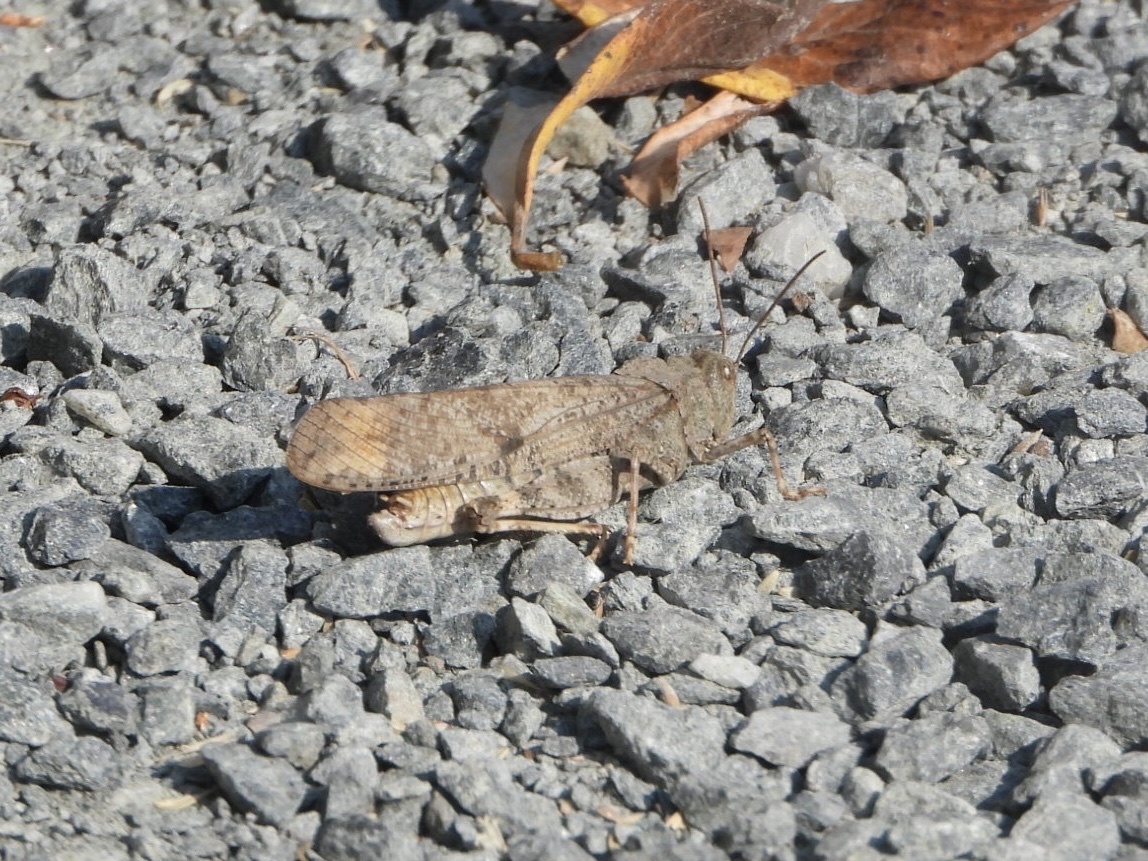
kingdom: Animalia
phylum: Arthropoda
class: Insecta
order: Orthoptera
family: Acrididae
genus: Dissosteira
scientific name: Dissosteira carolina
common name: Carolina grasshopper
